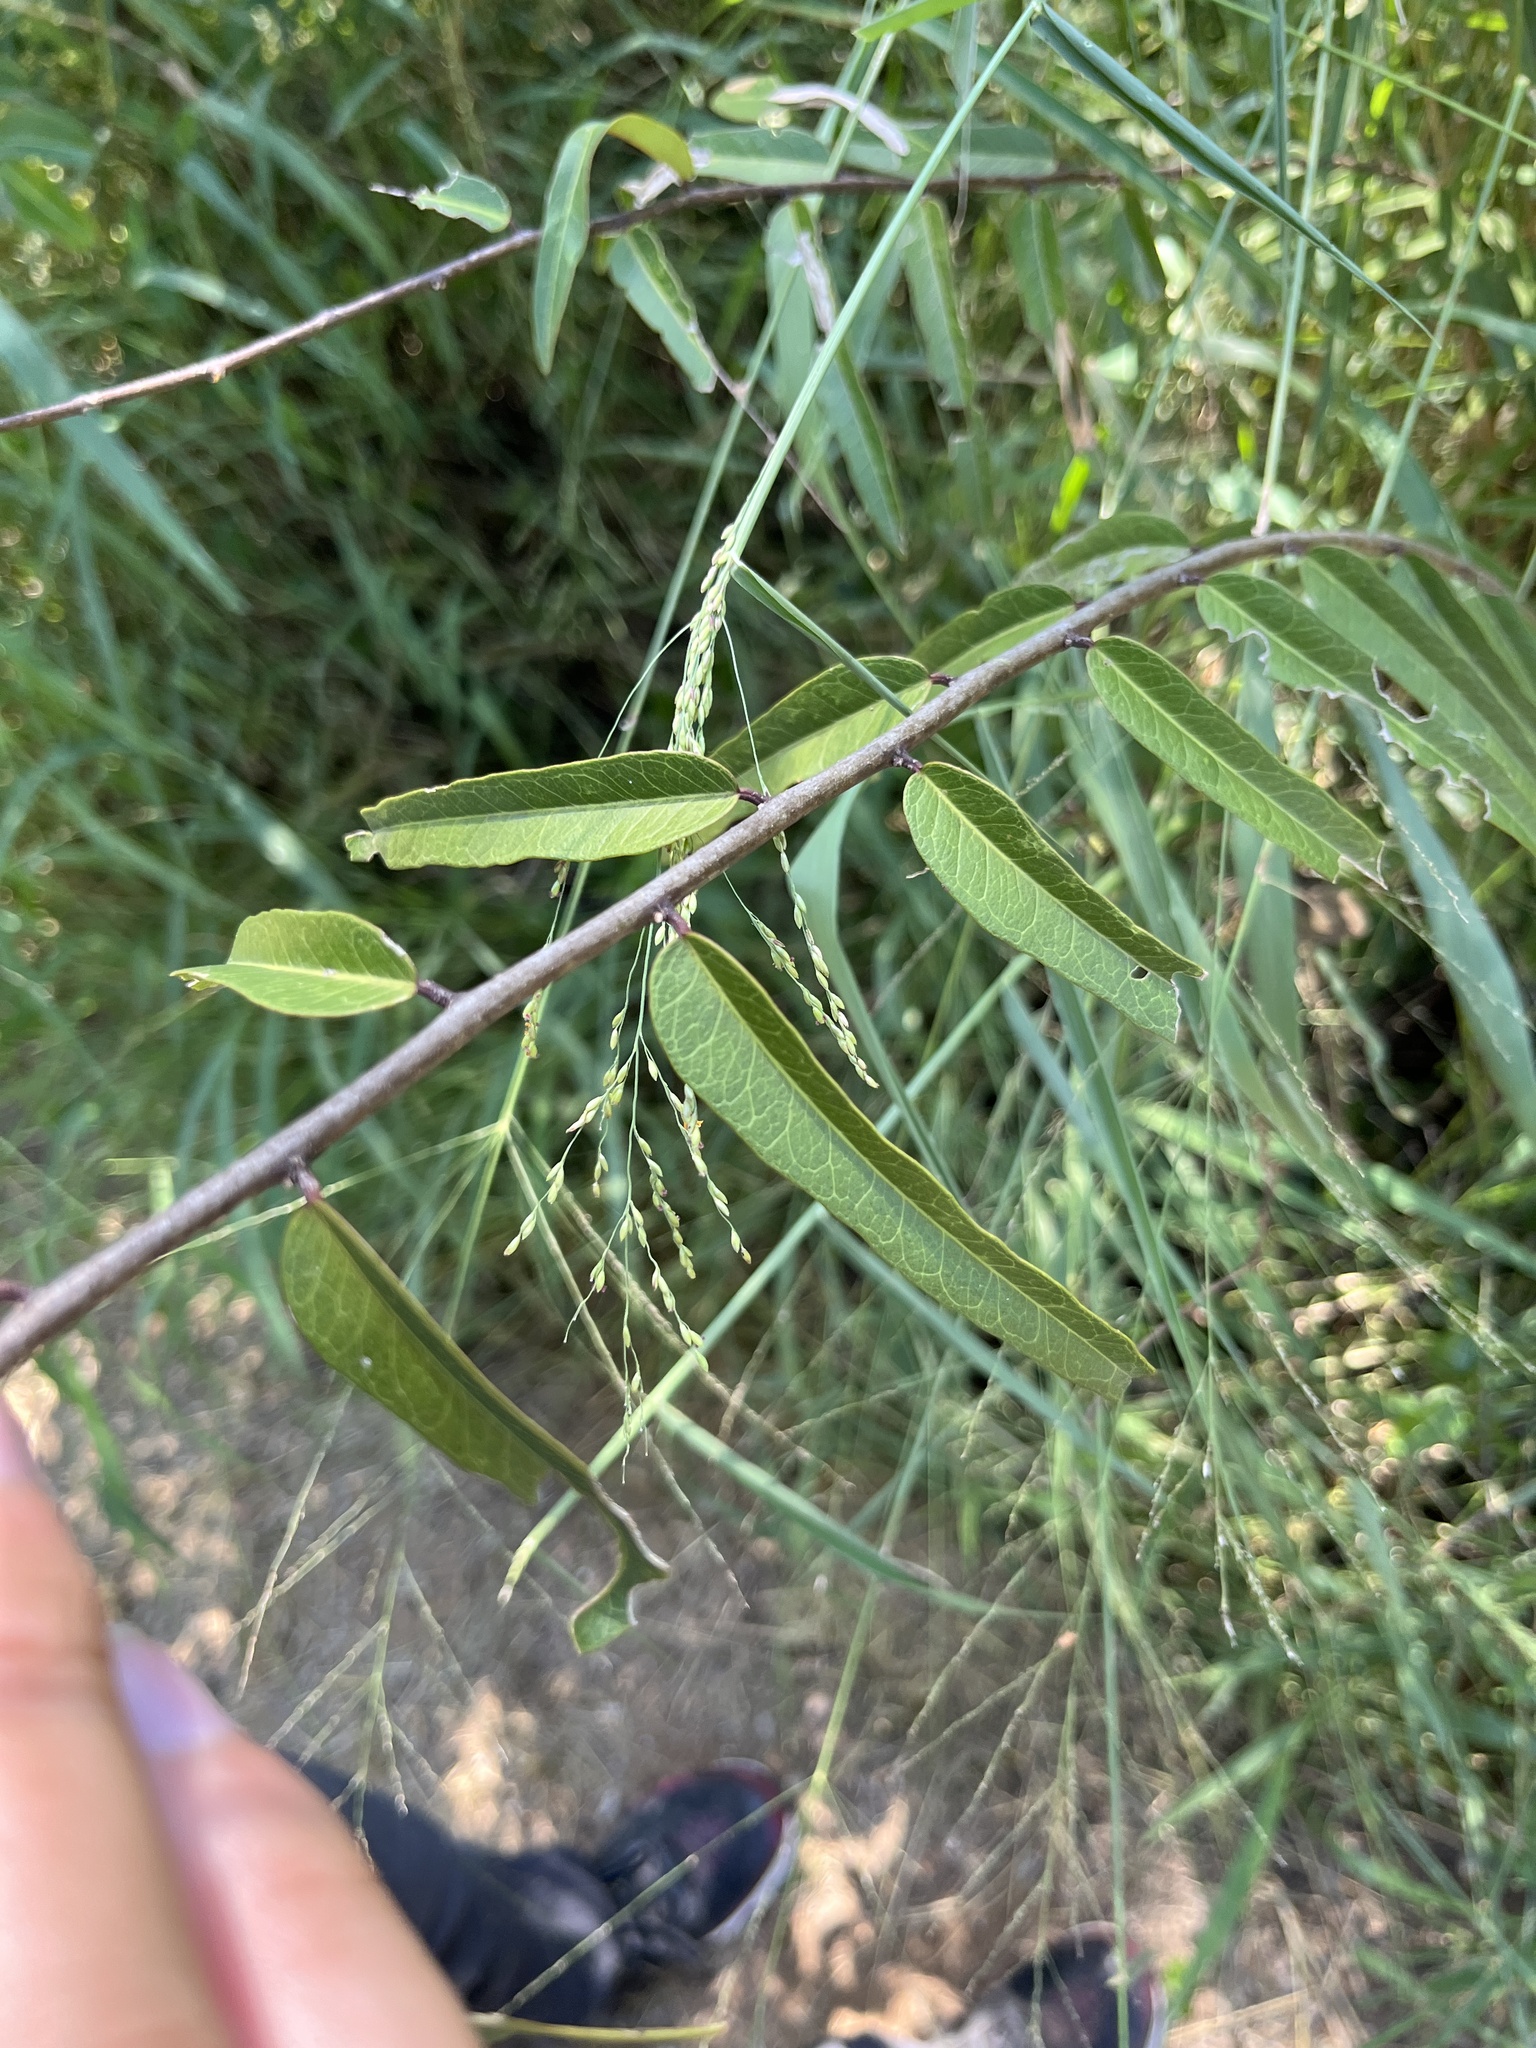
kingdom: Plantae
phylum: Tracheophyta
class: Magnoliopsida
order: Brassicales
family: Capparaceae
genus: Cynophalla
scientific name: Cynophalla flexuosa
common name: Capertree
